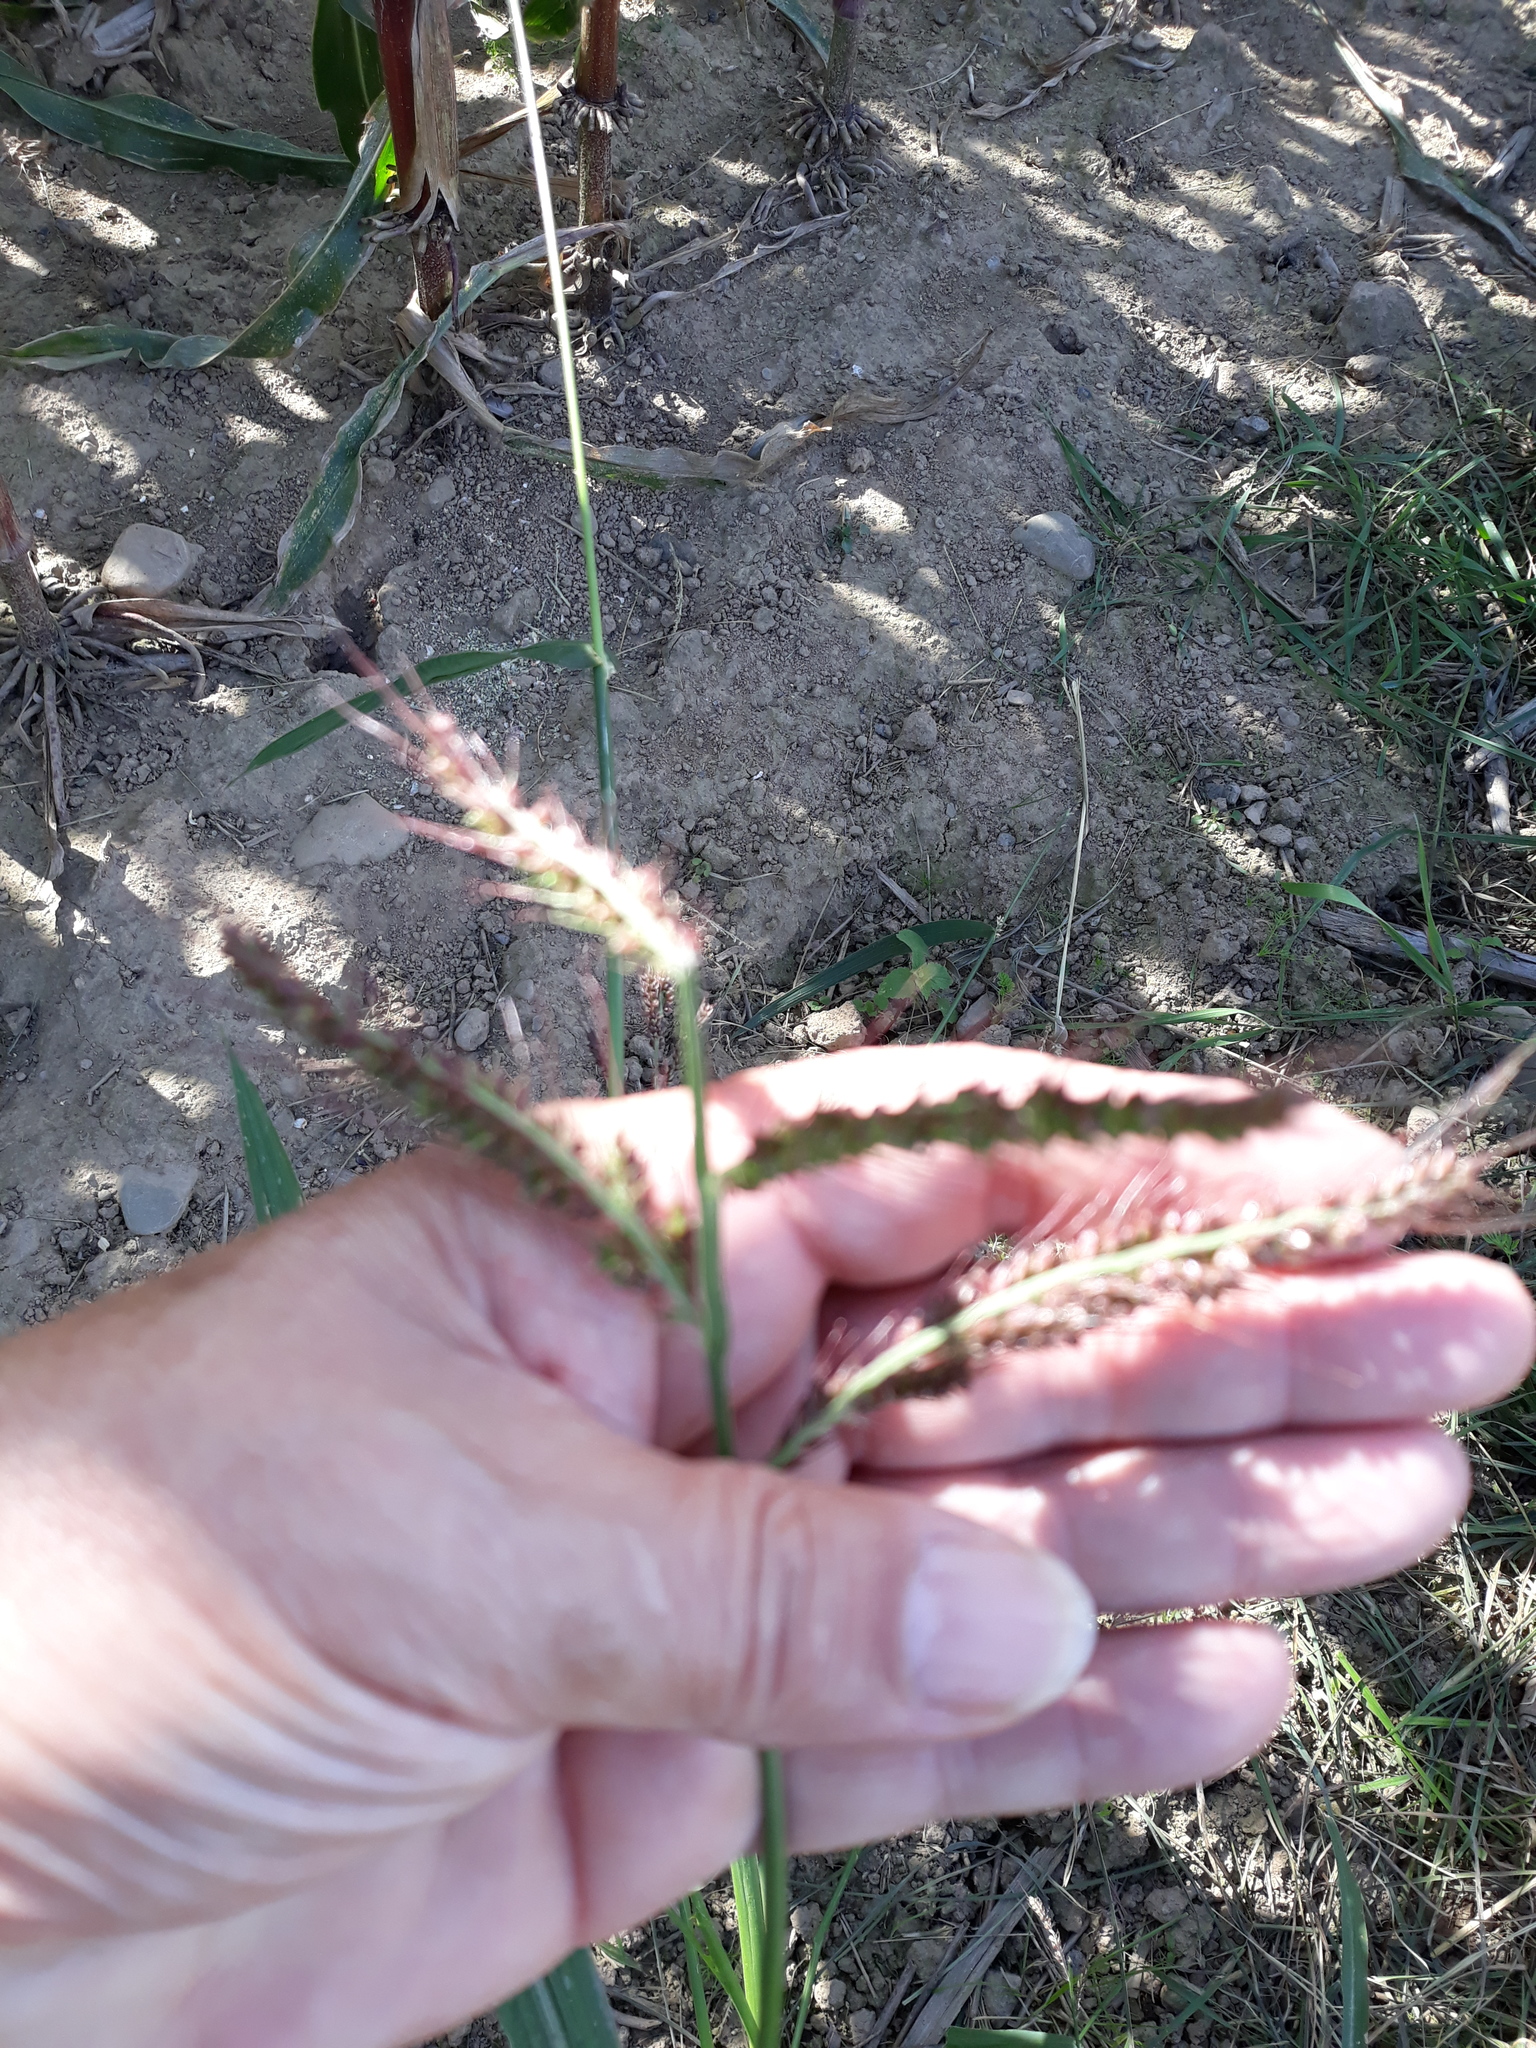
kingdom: Plantae
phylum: Tracheophyta
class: Liliopsida
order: Poales
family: Poaceae
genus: Echinochloa
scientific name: Echinochloa crus-galli
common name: Cockspur
